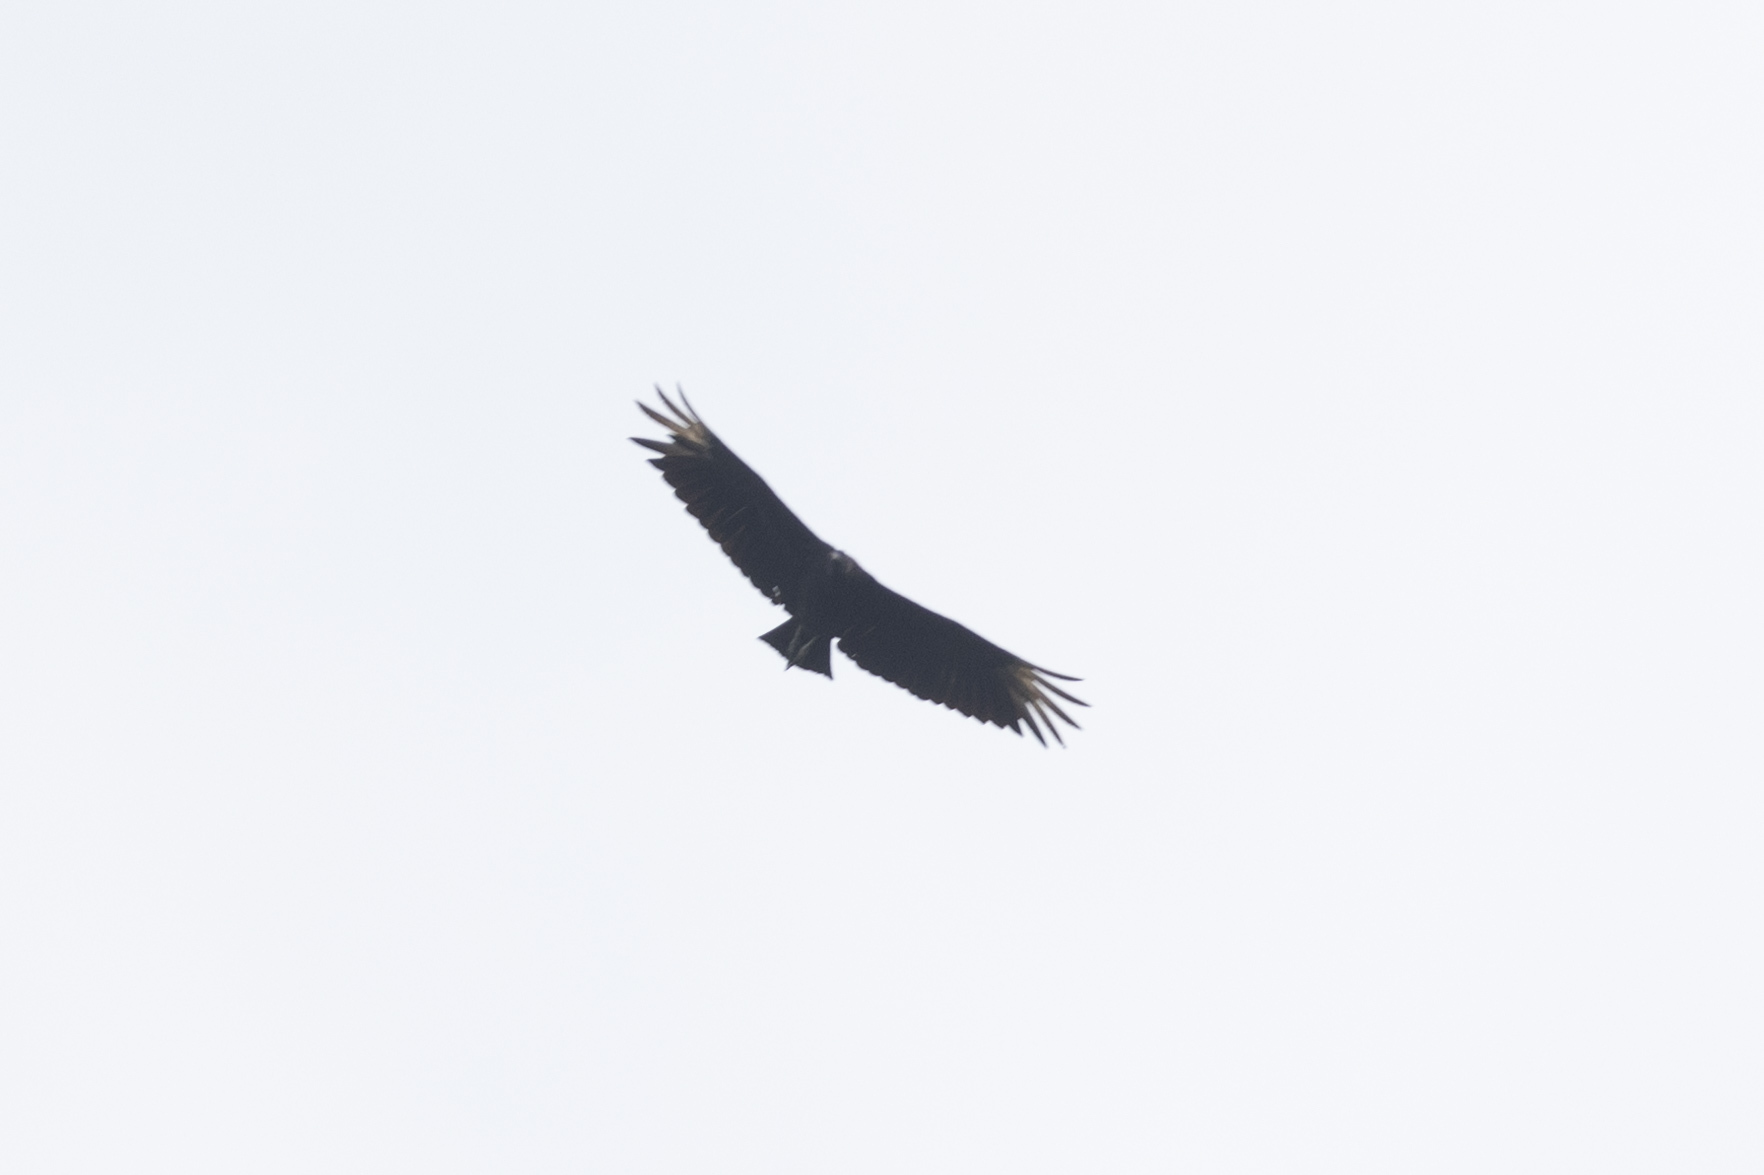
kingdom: Animalia
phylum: Chordata
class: Aves
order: Accipitriformes
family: Cathartidae
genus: Coragyps
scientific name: Coragyps atratus
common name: Black vulture
